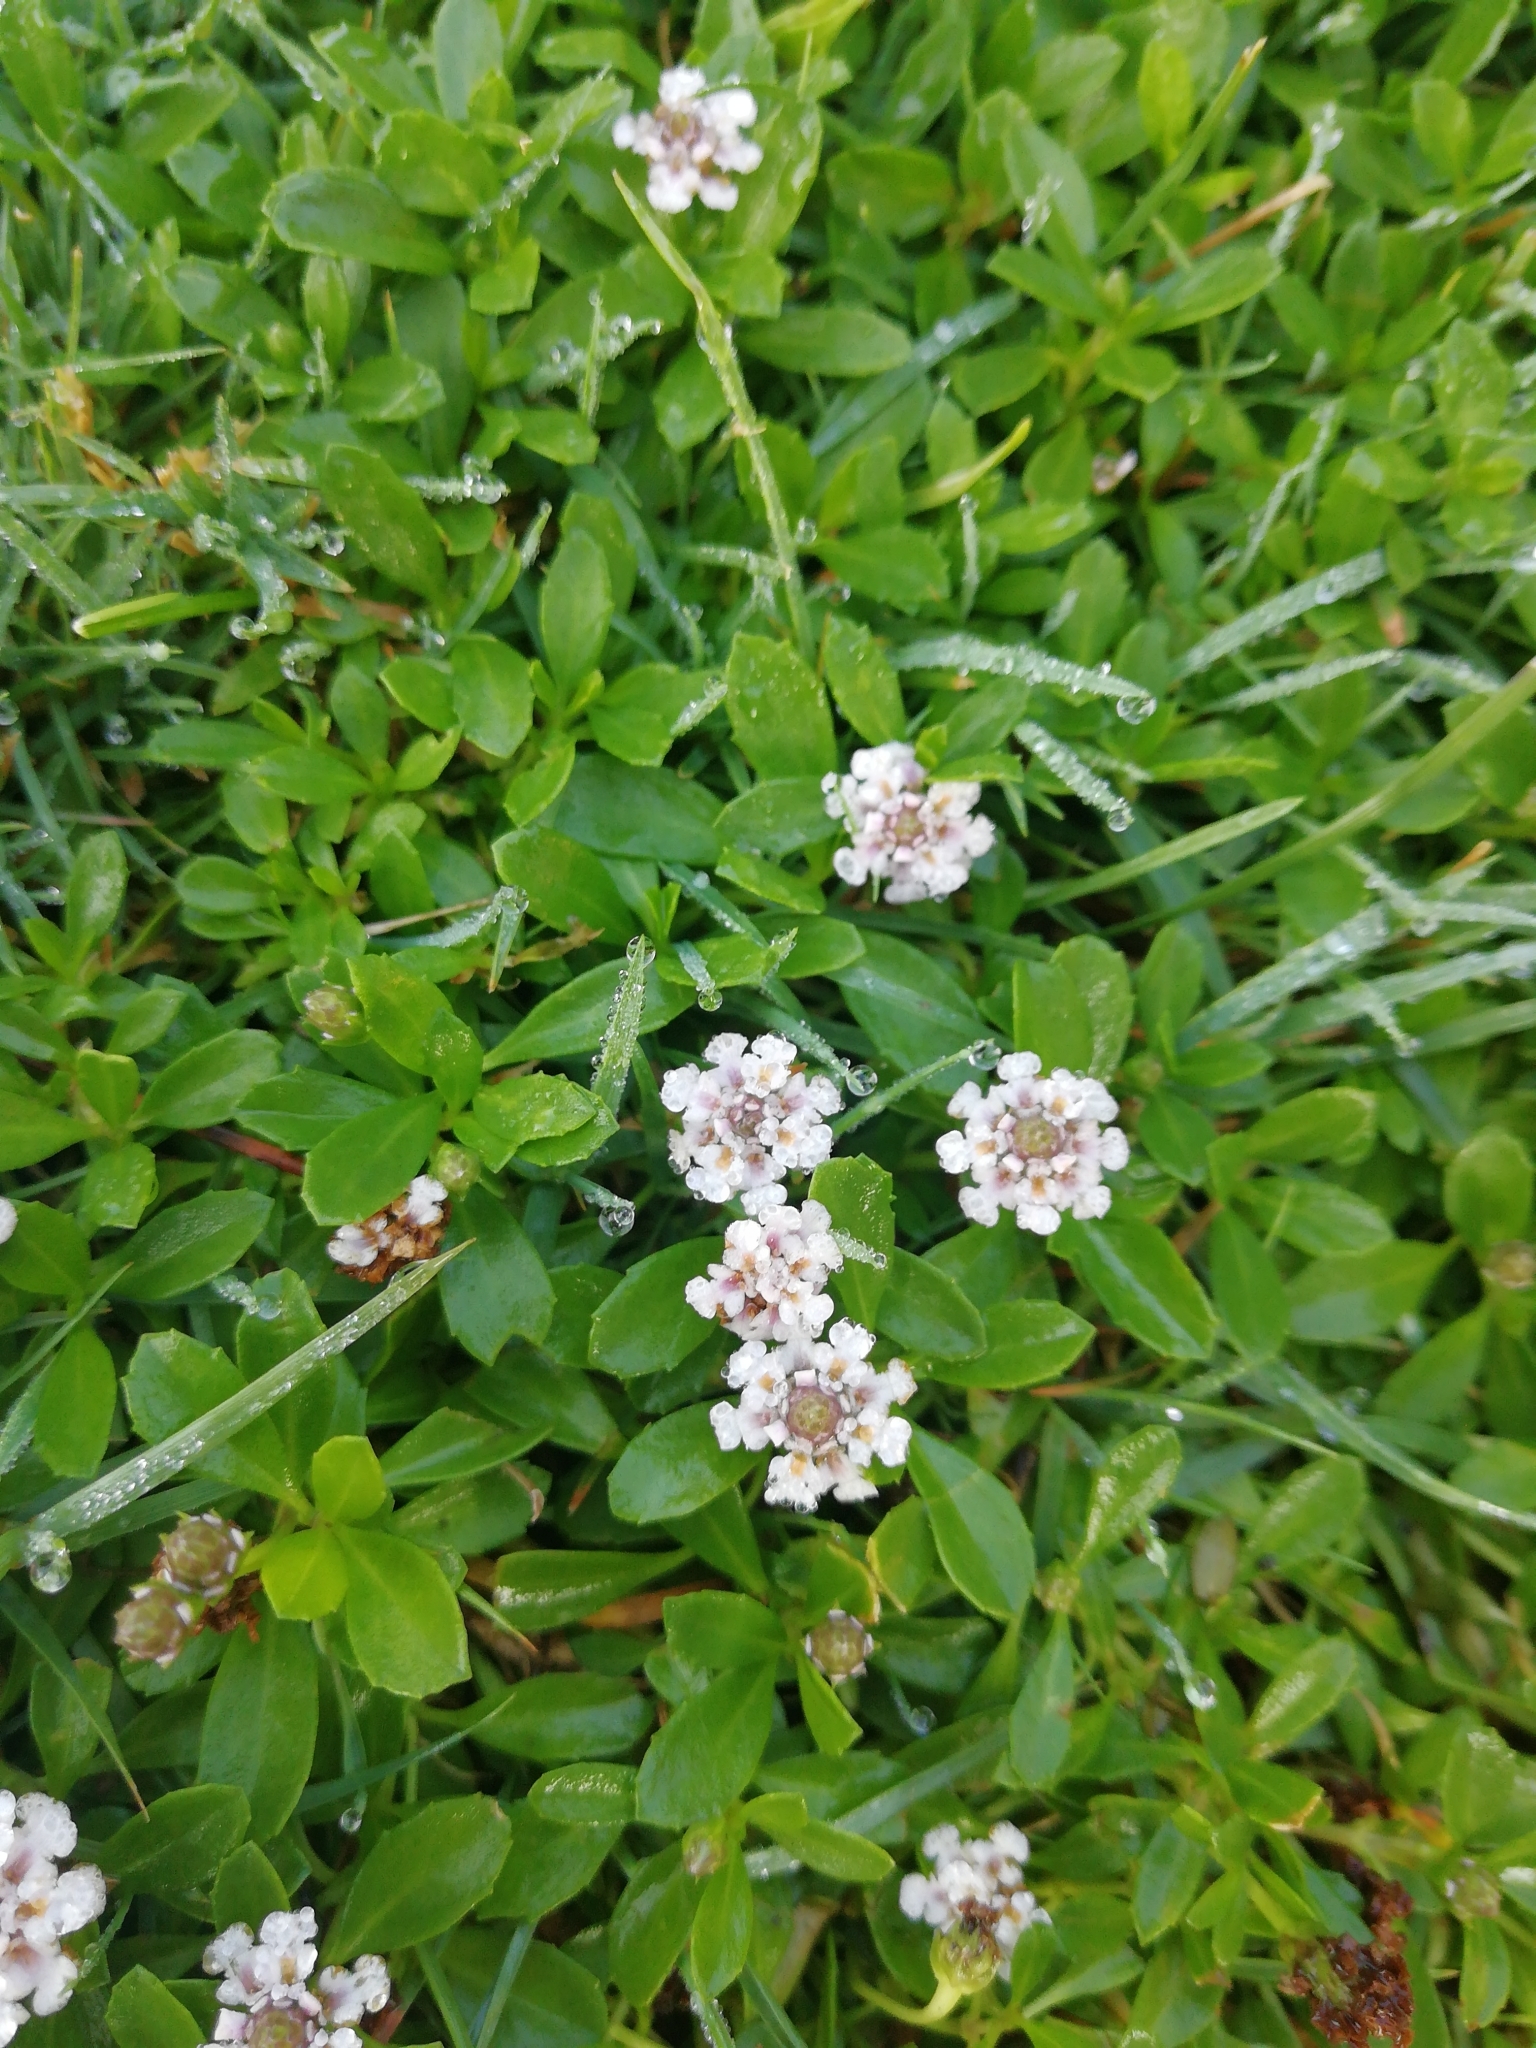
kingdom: Plantae
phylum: Tracheophyta
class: Magnoliopsida
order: Lamiales
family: Verbenaceae
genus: Phyla
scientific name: Phyla nodiflora
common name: Frogfruit
